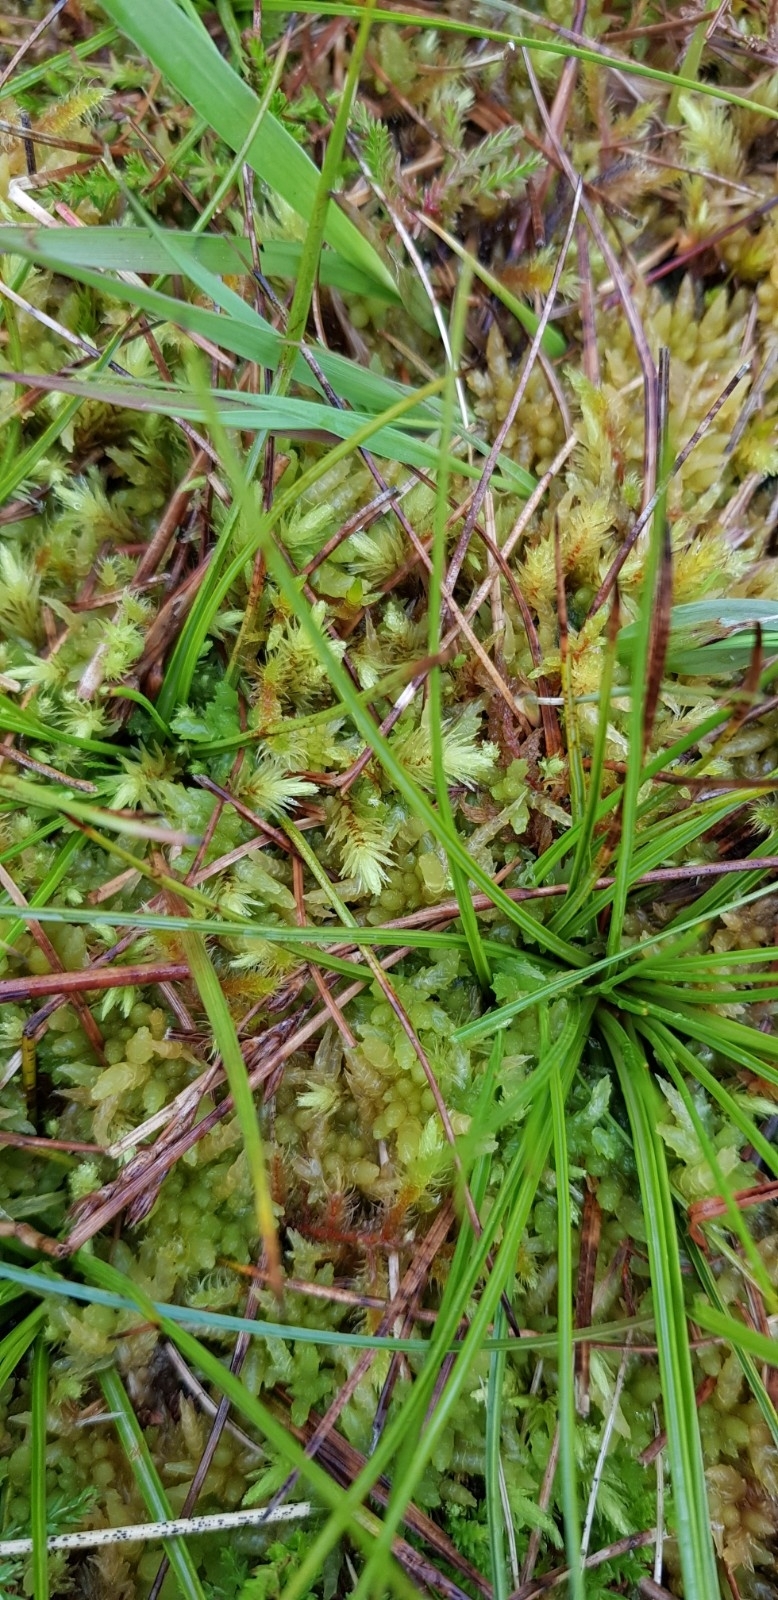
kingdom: Plantae
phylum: Bryophyta
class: Bryopsida
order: Aulacomniales
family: Aulacomniaceae
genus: Aulacomnium
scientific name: Aulacomnium palustre
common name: Bog groove-moss
